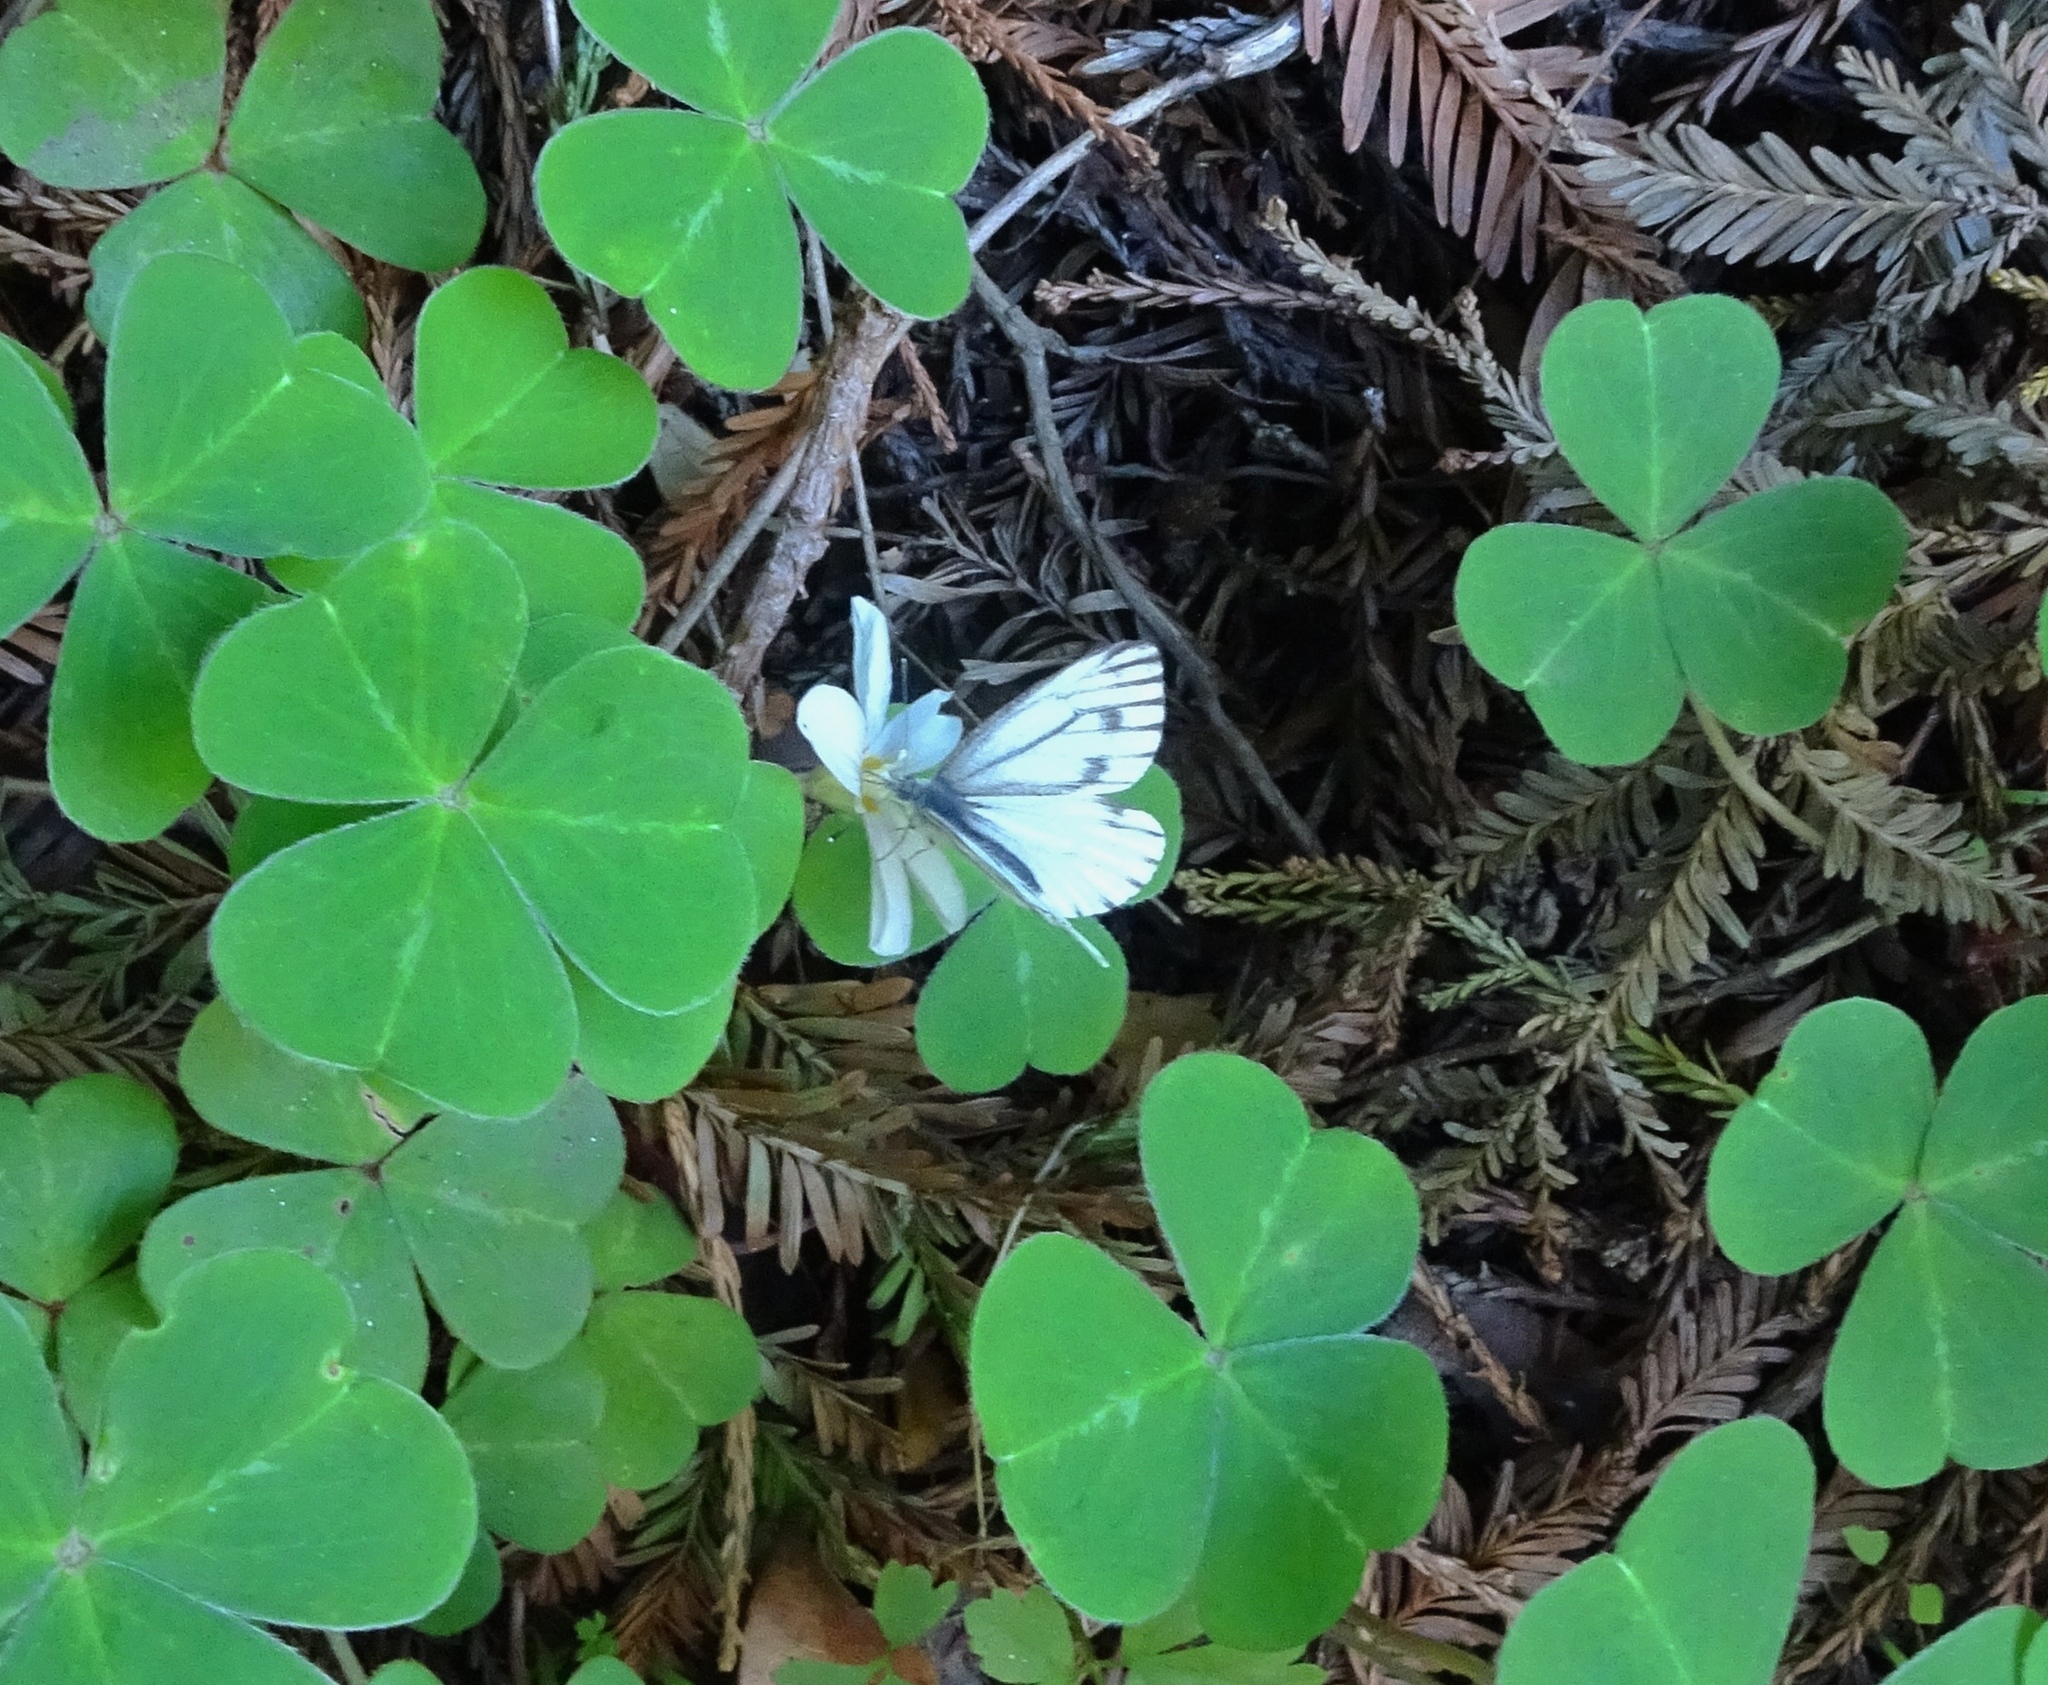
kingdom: Animalia
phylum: Arthropoda
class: Insecta
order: Lepidoptera
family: Pieridae
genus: Pieris
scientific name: Pieris marginalis
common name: Margined white
